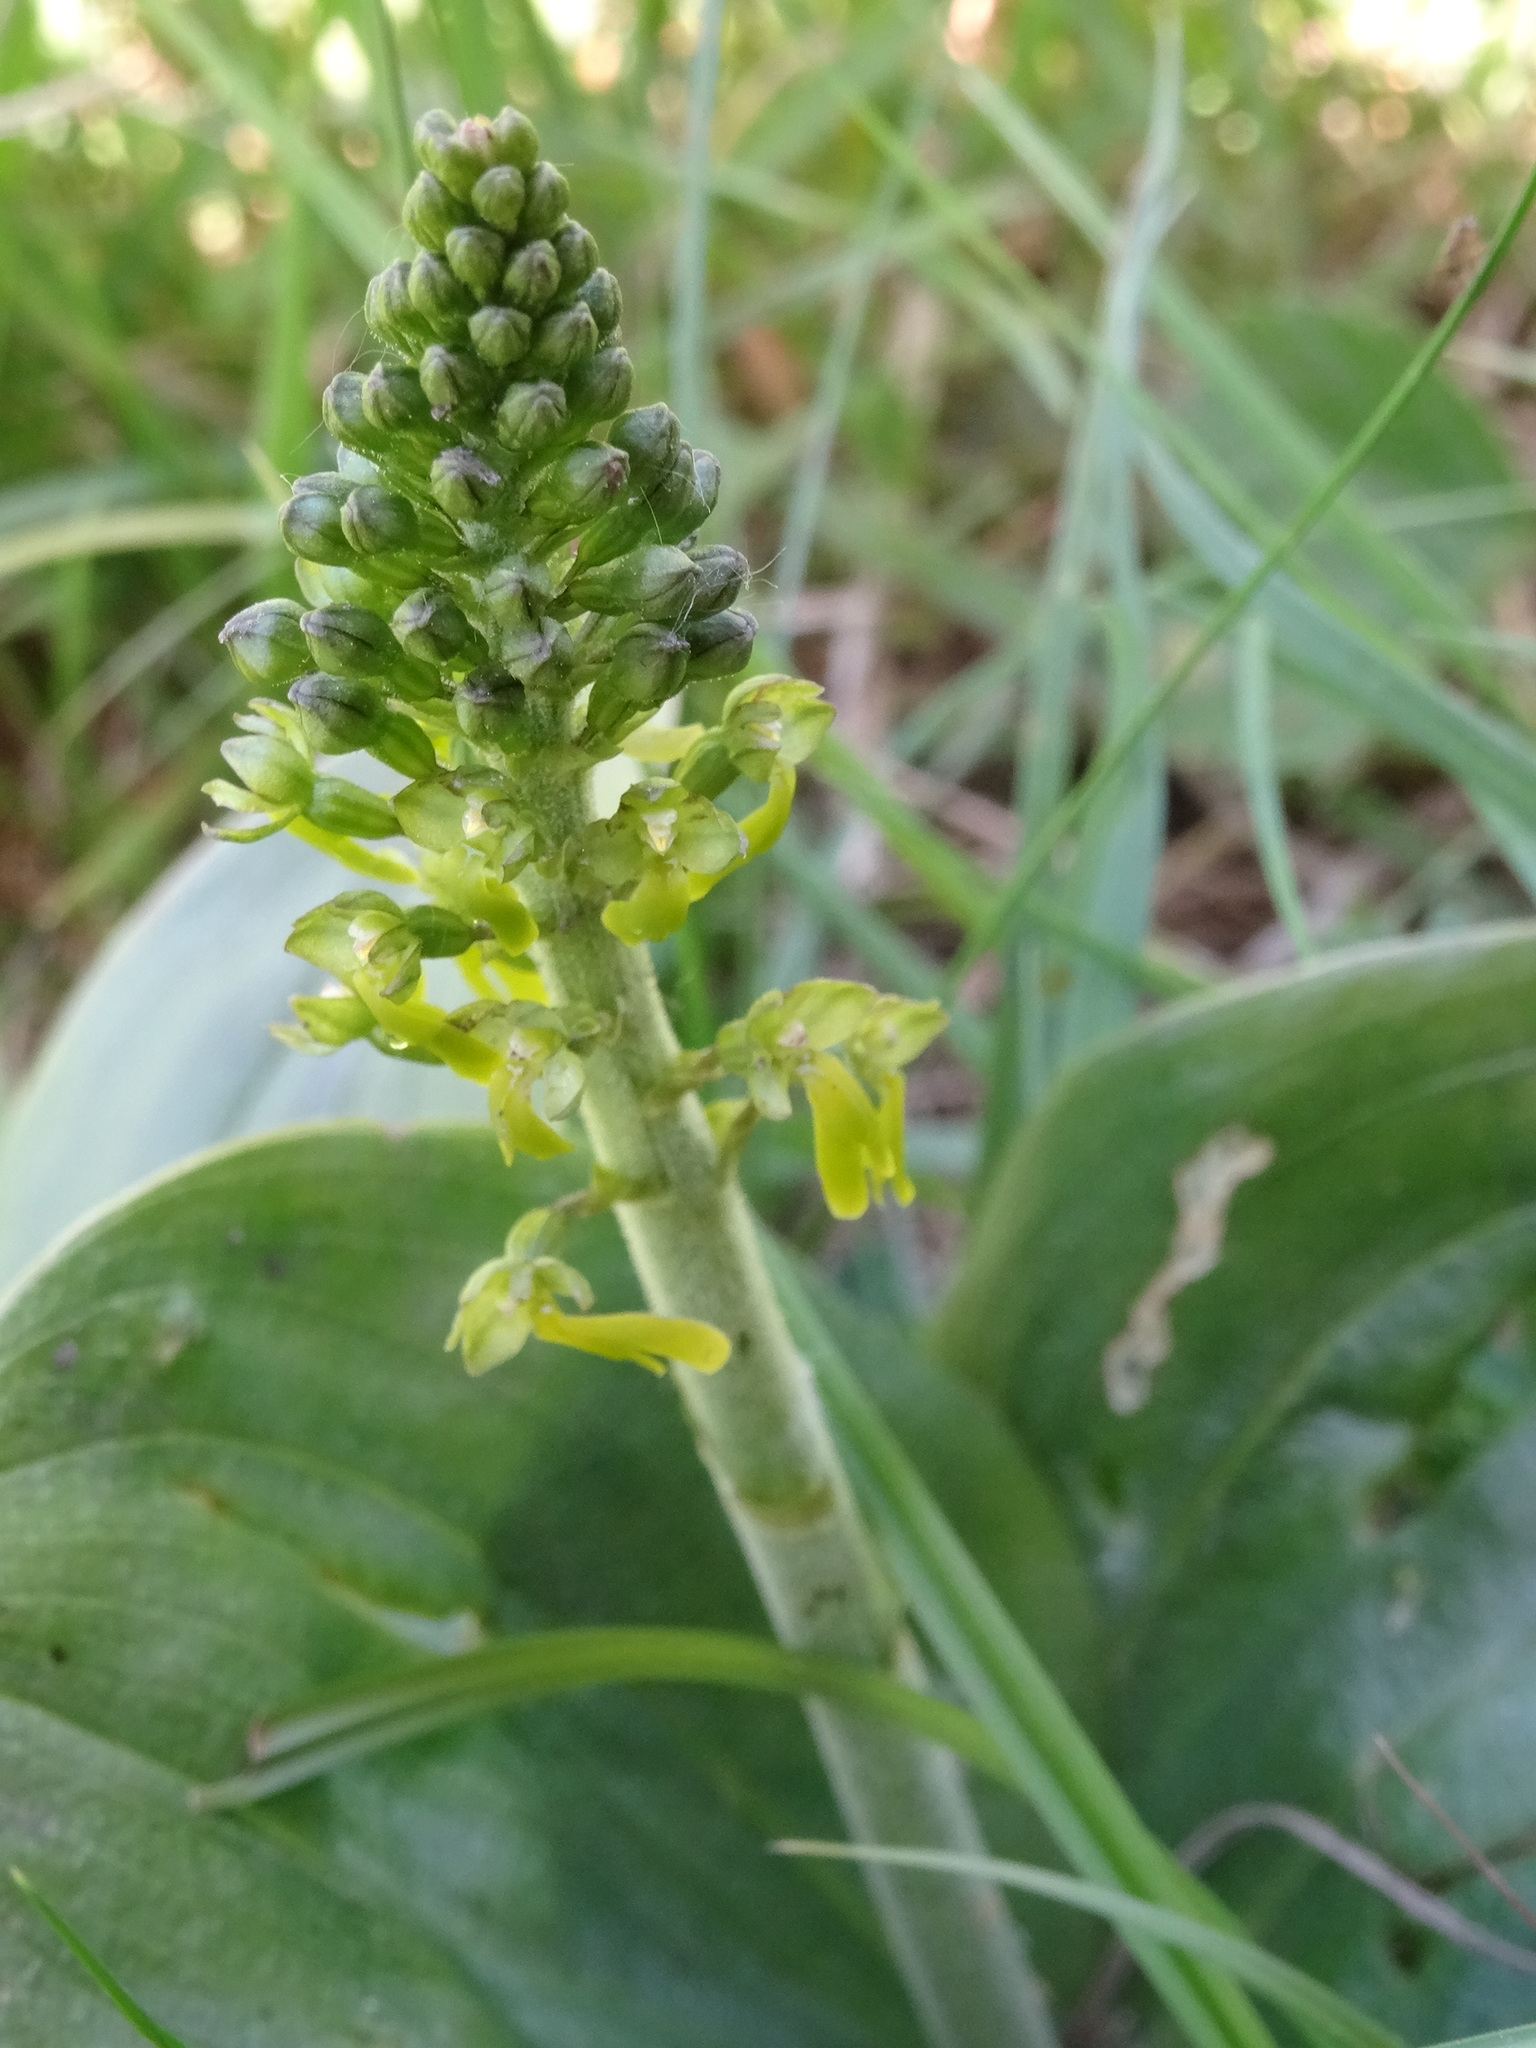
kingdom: Plantae
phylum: Tracheophyta
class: Liliopsida
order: Asparagales
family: Orchidaceae
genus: Neottia
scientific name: Neottia ovata
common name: Common twayblade
